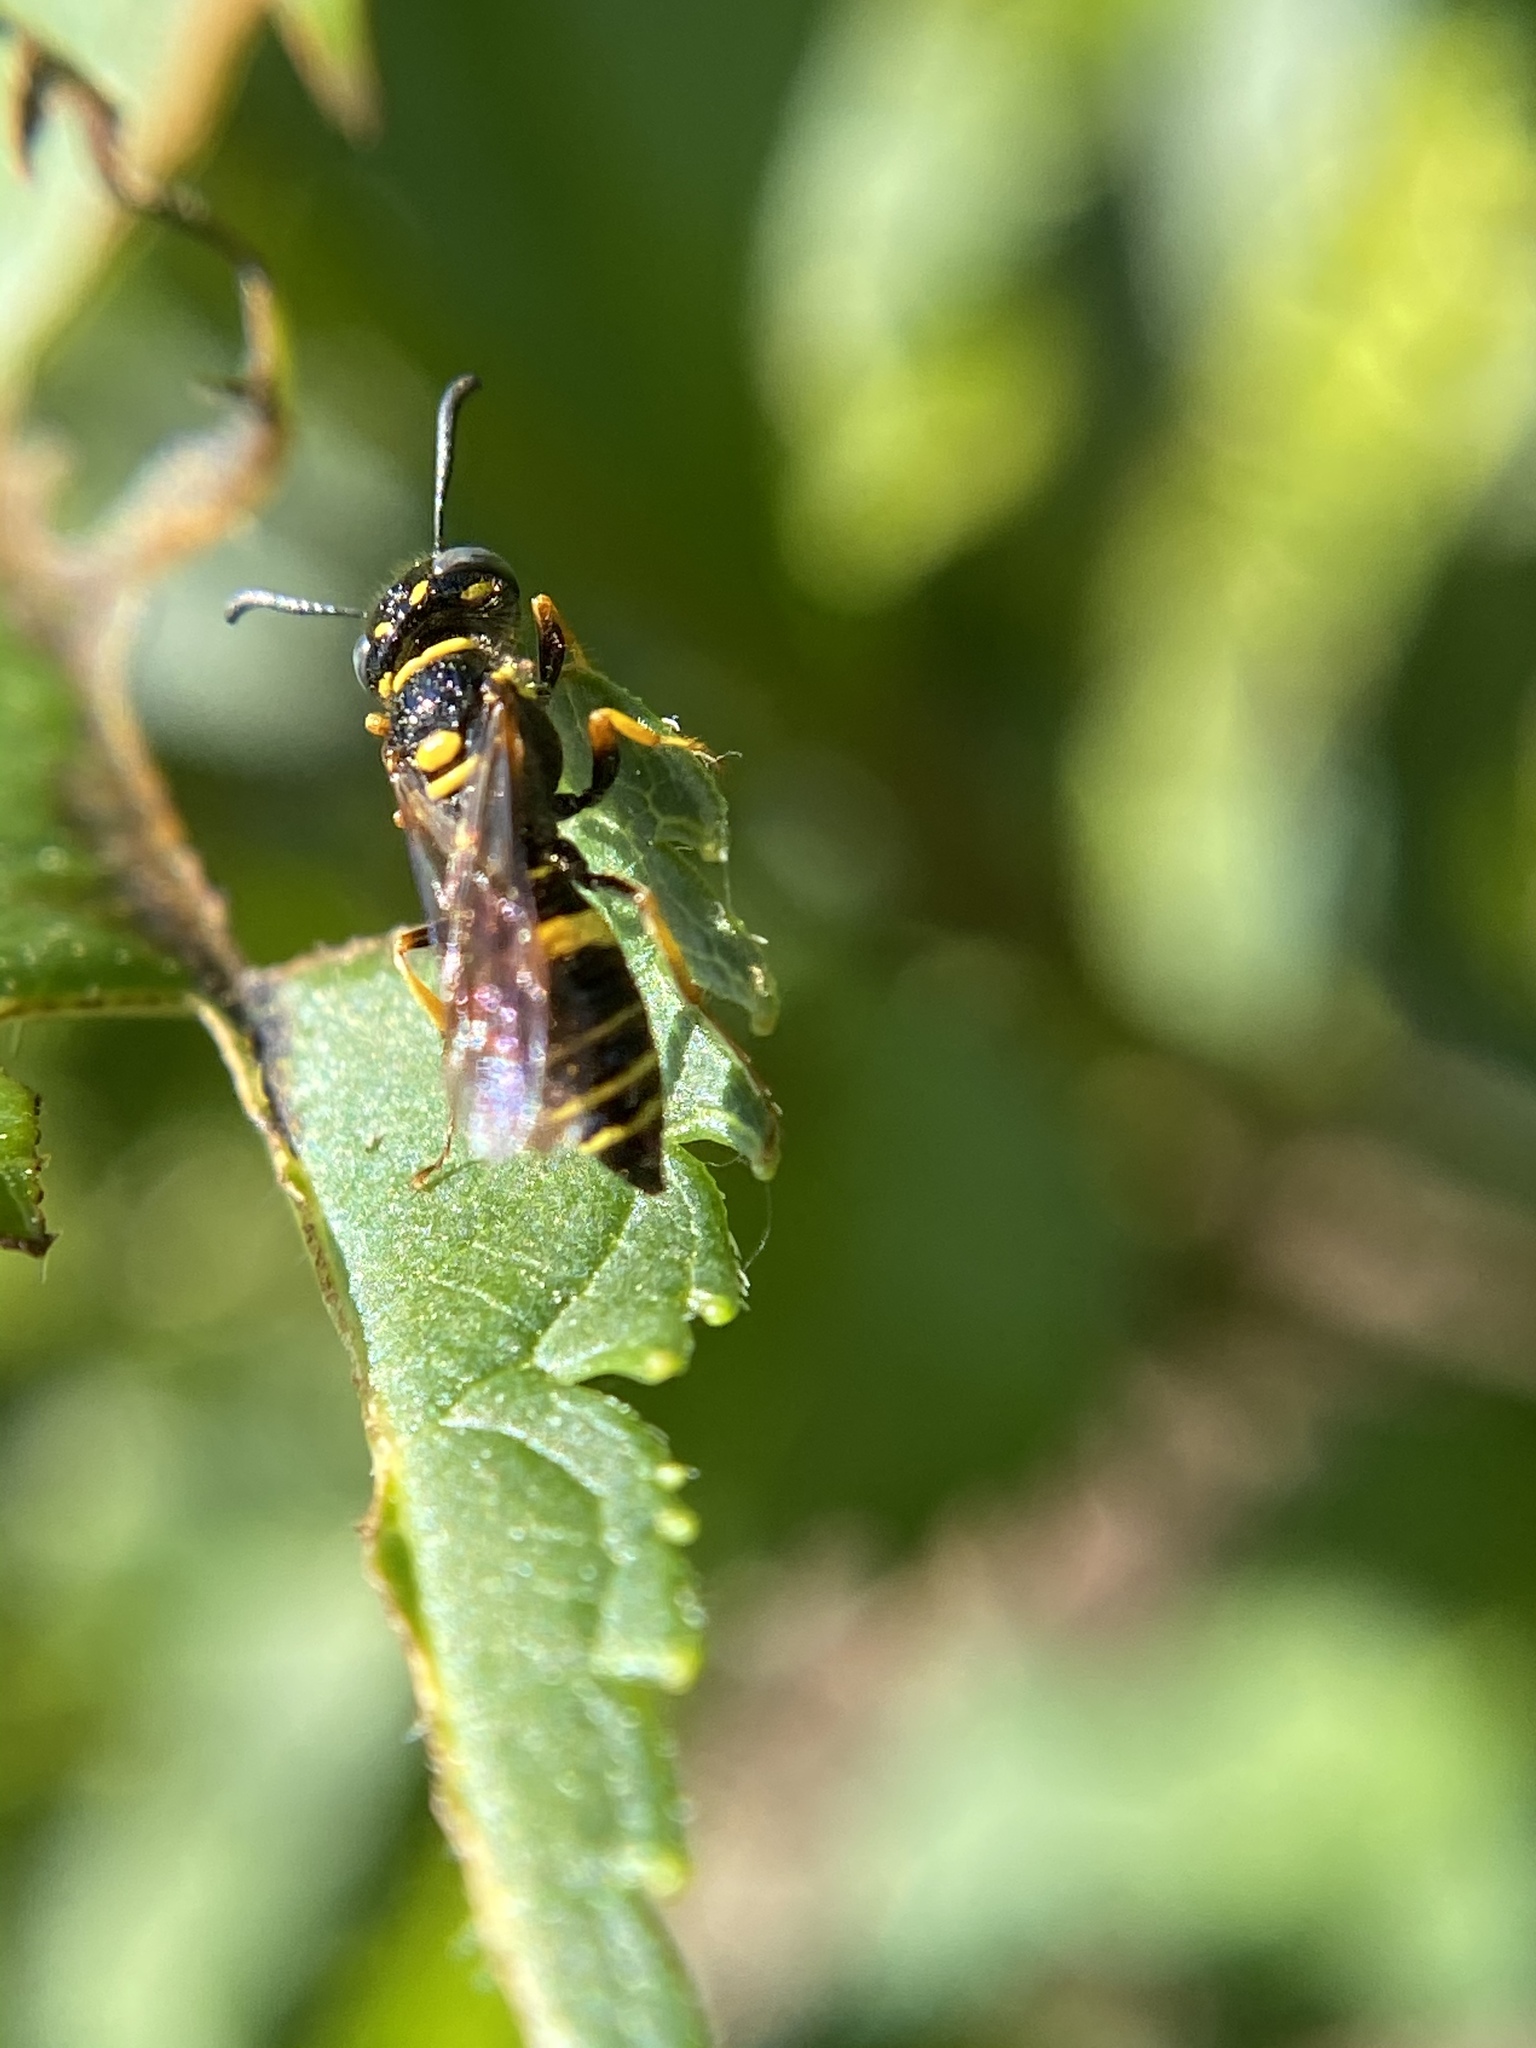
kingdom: Animalia
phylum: Arthropoda
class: Insecta
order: Hymenoptera
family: Crabronidae
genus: Philanthus
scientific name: Philanthus gibbosus
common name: Humped beewolf
